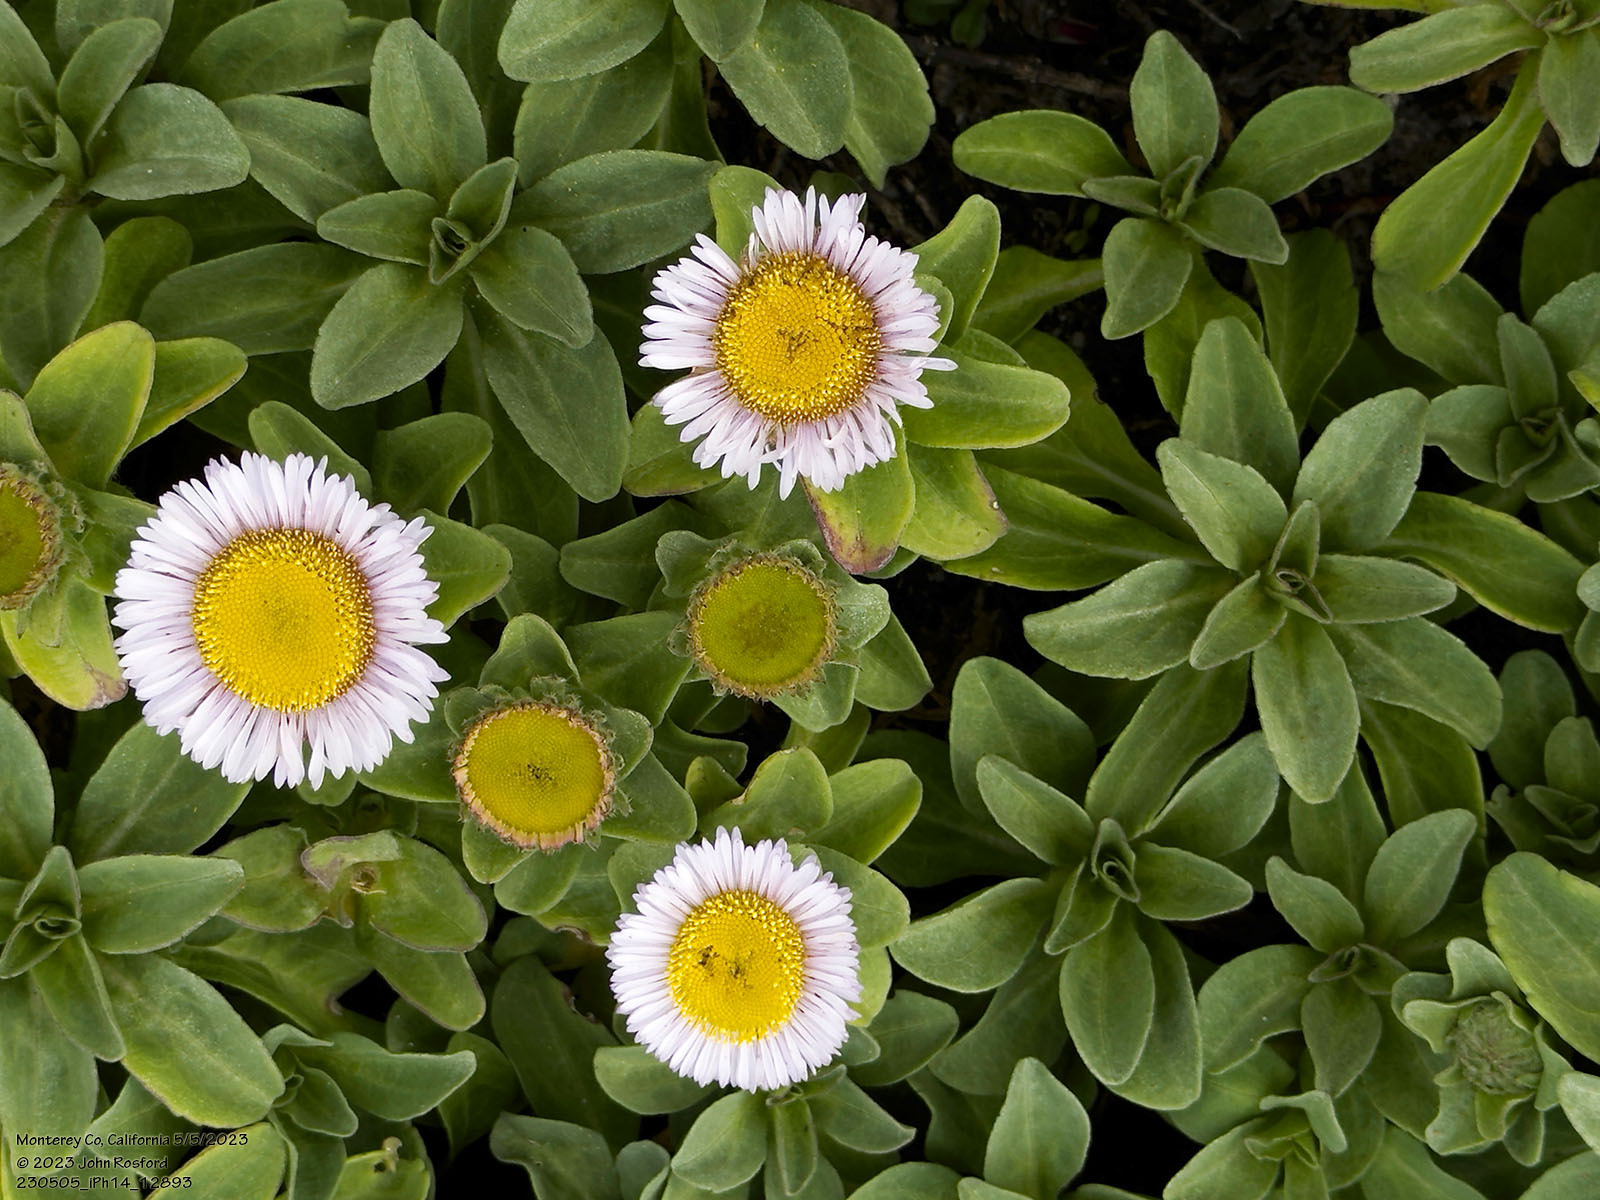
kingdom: Plantae
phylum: Tracheophyta
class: Magnoliopsida
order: Asterales
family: Asteraceae
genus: Erigeron
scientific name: Erigeron glaucus
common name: Seaside daisy
